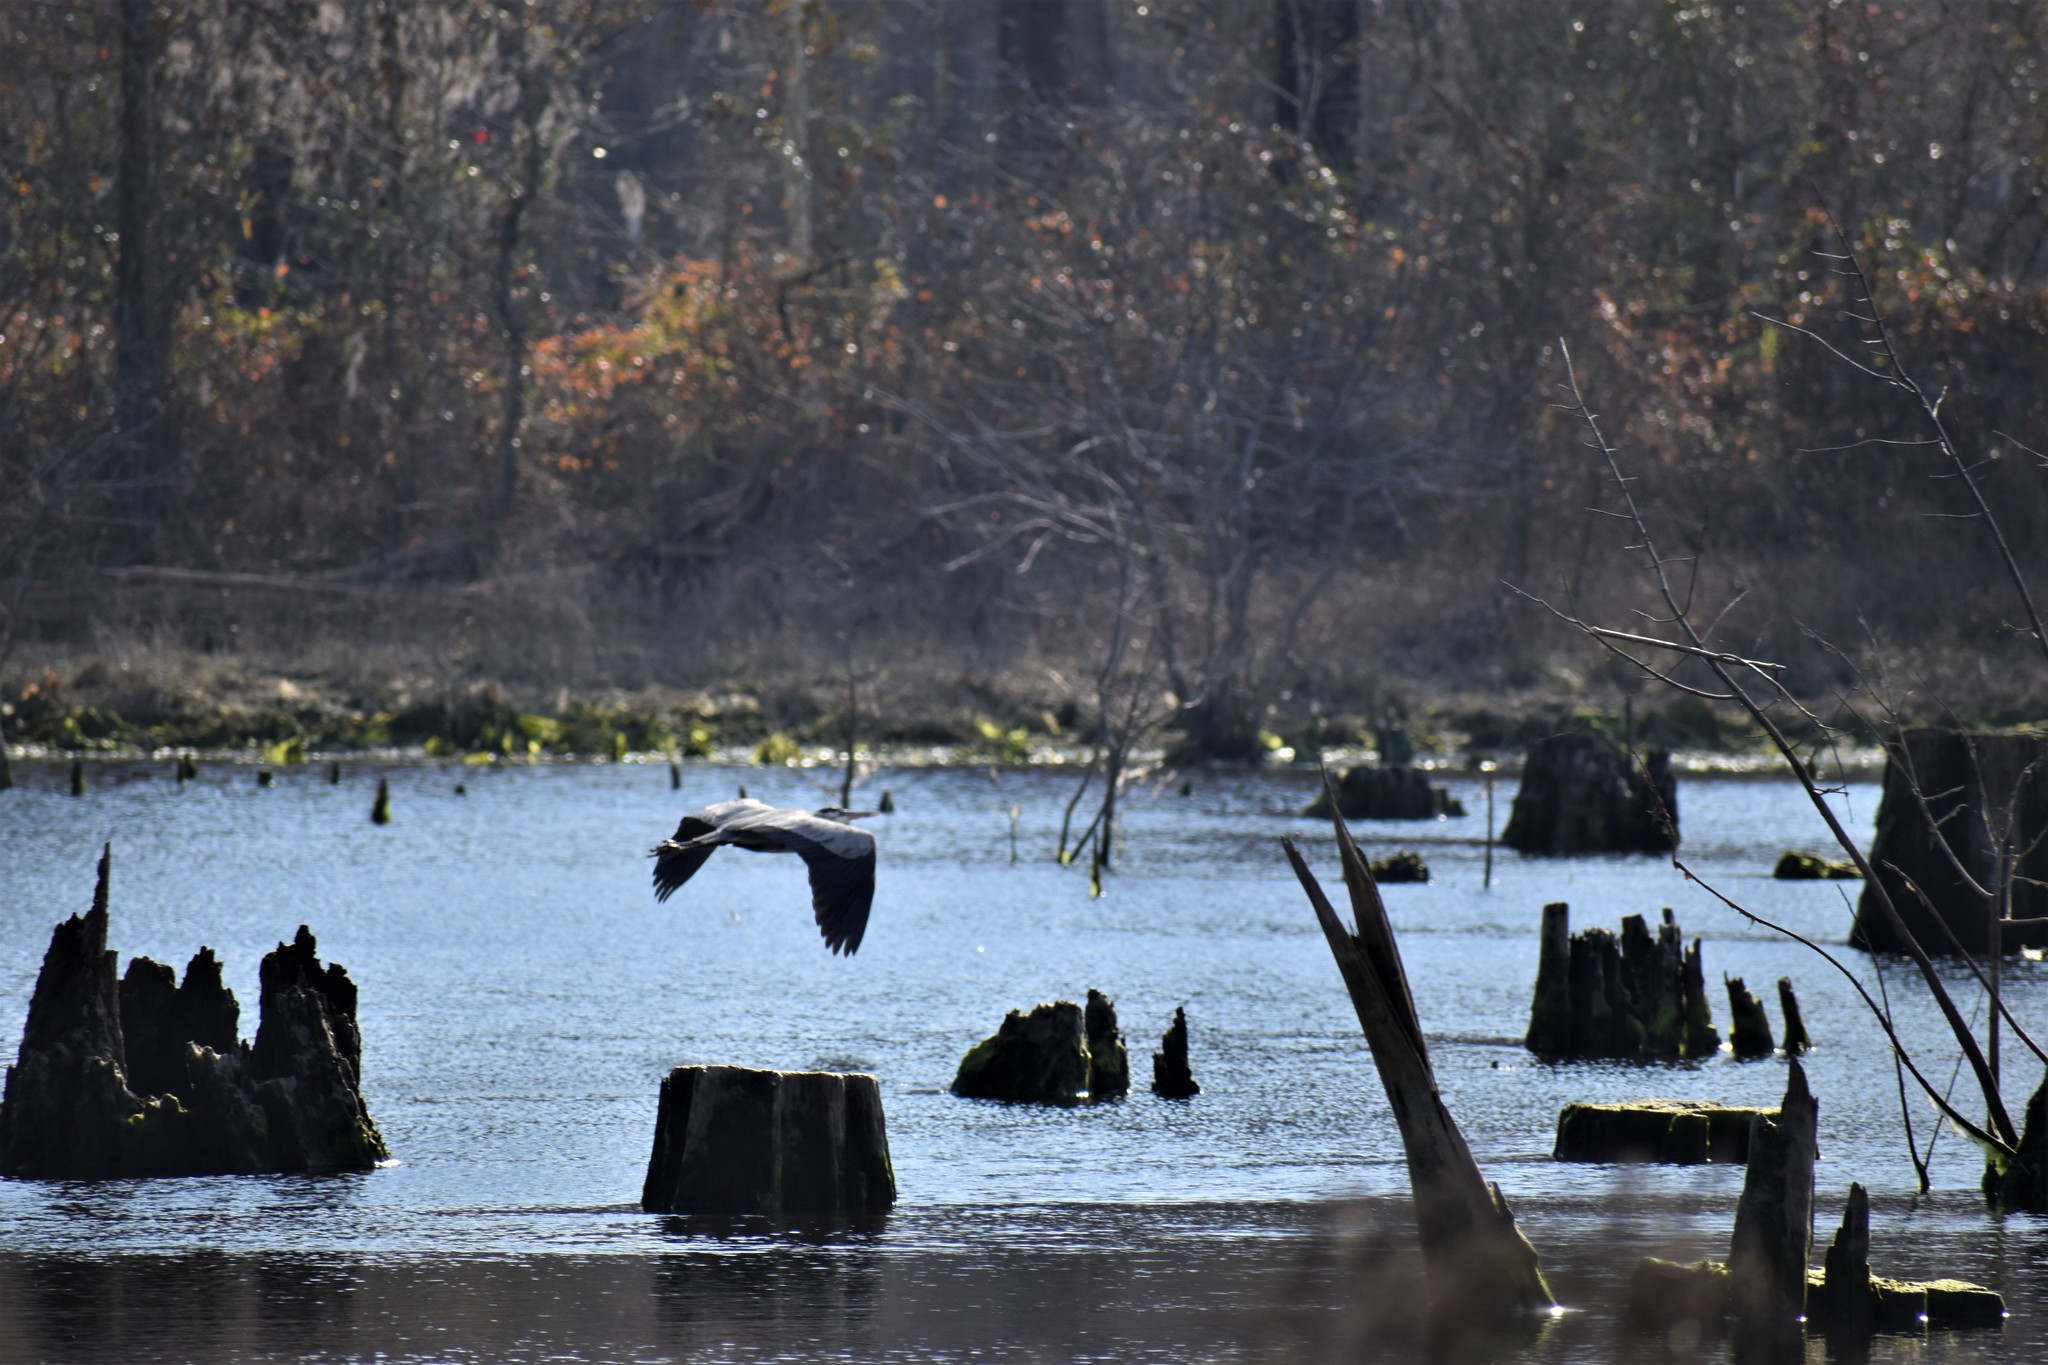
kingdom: Animalia
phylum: Chordata
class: Aves
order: Pelecaniformes
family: Ardeidae
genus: Ardea
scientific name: Ardea herodias
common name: Great blue heron
